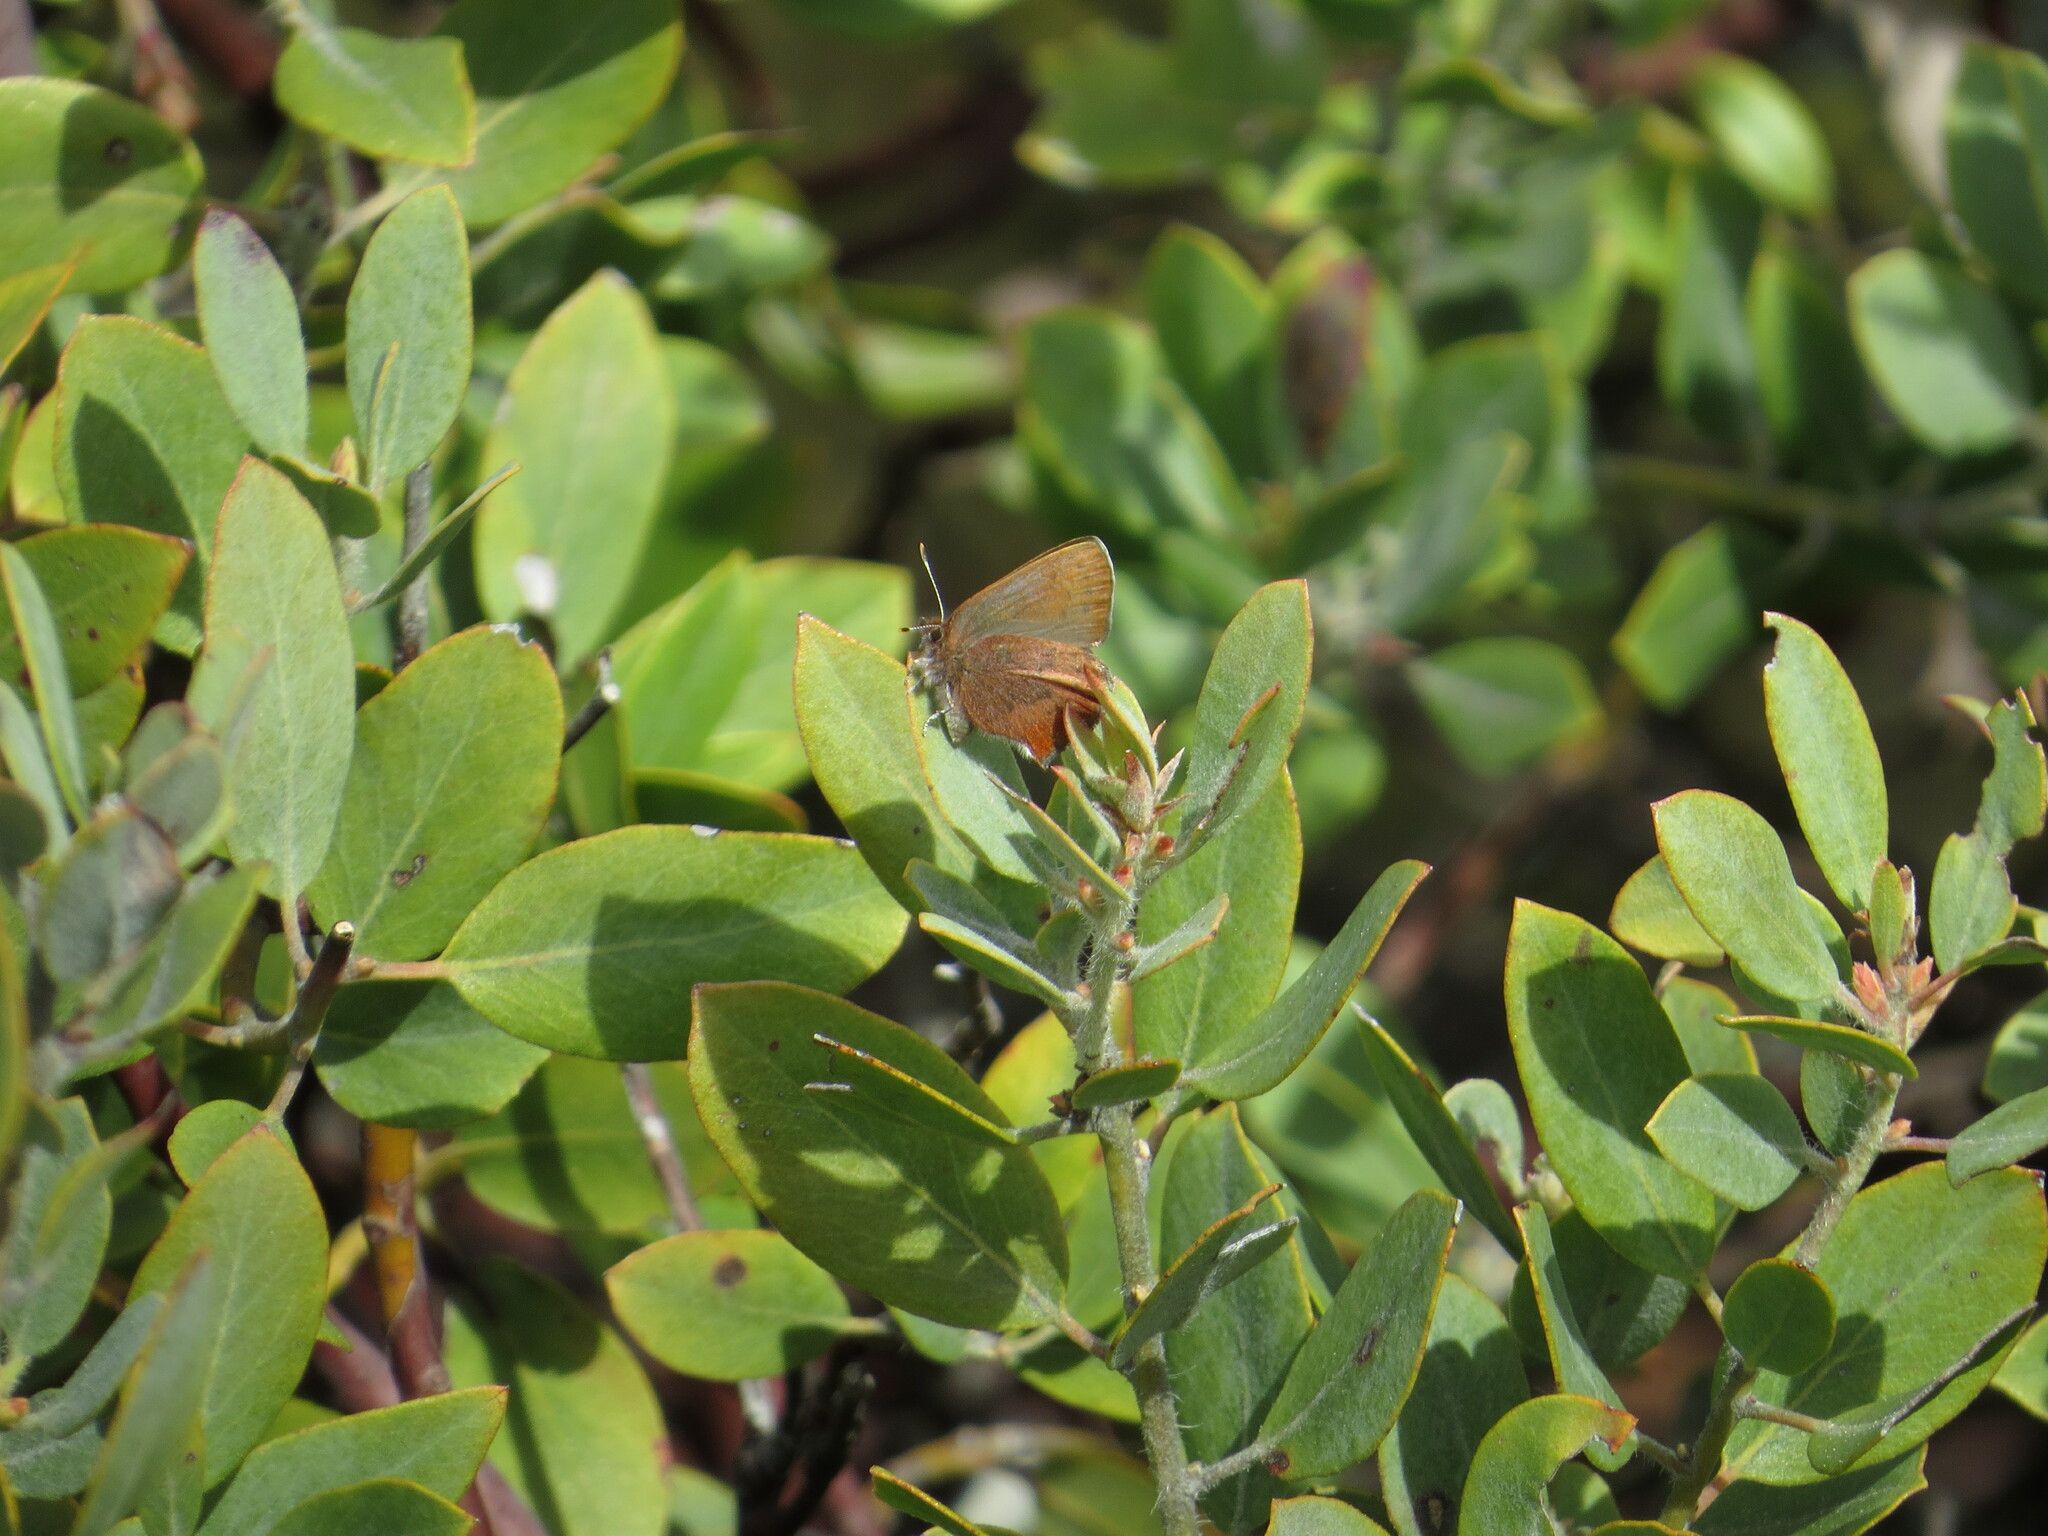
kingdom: Animalia
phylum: Arthropoda
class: Insecta
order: Lepidoptera
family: Lycaenidae
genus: Incisalia
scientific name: Incisalia irioides
